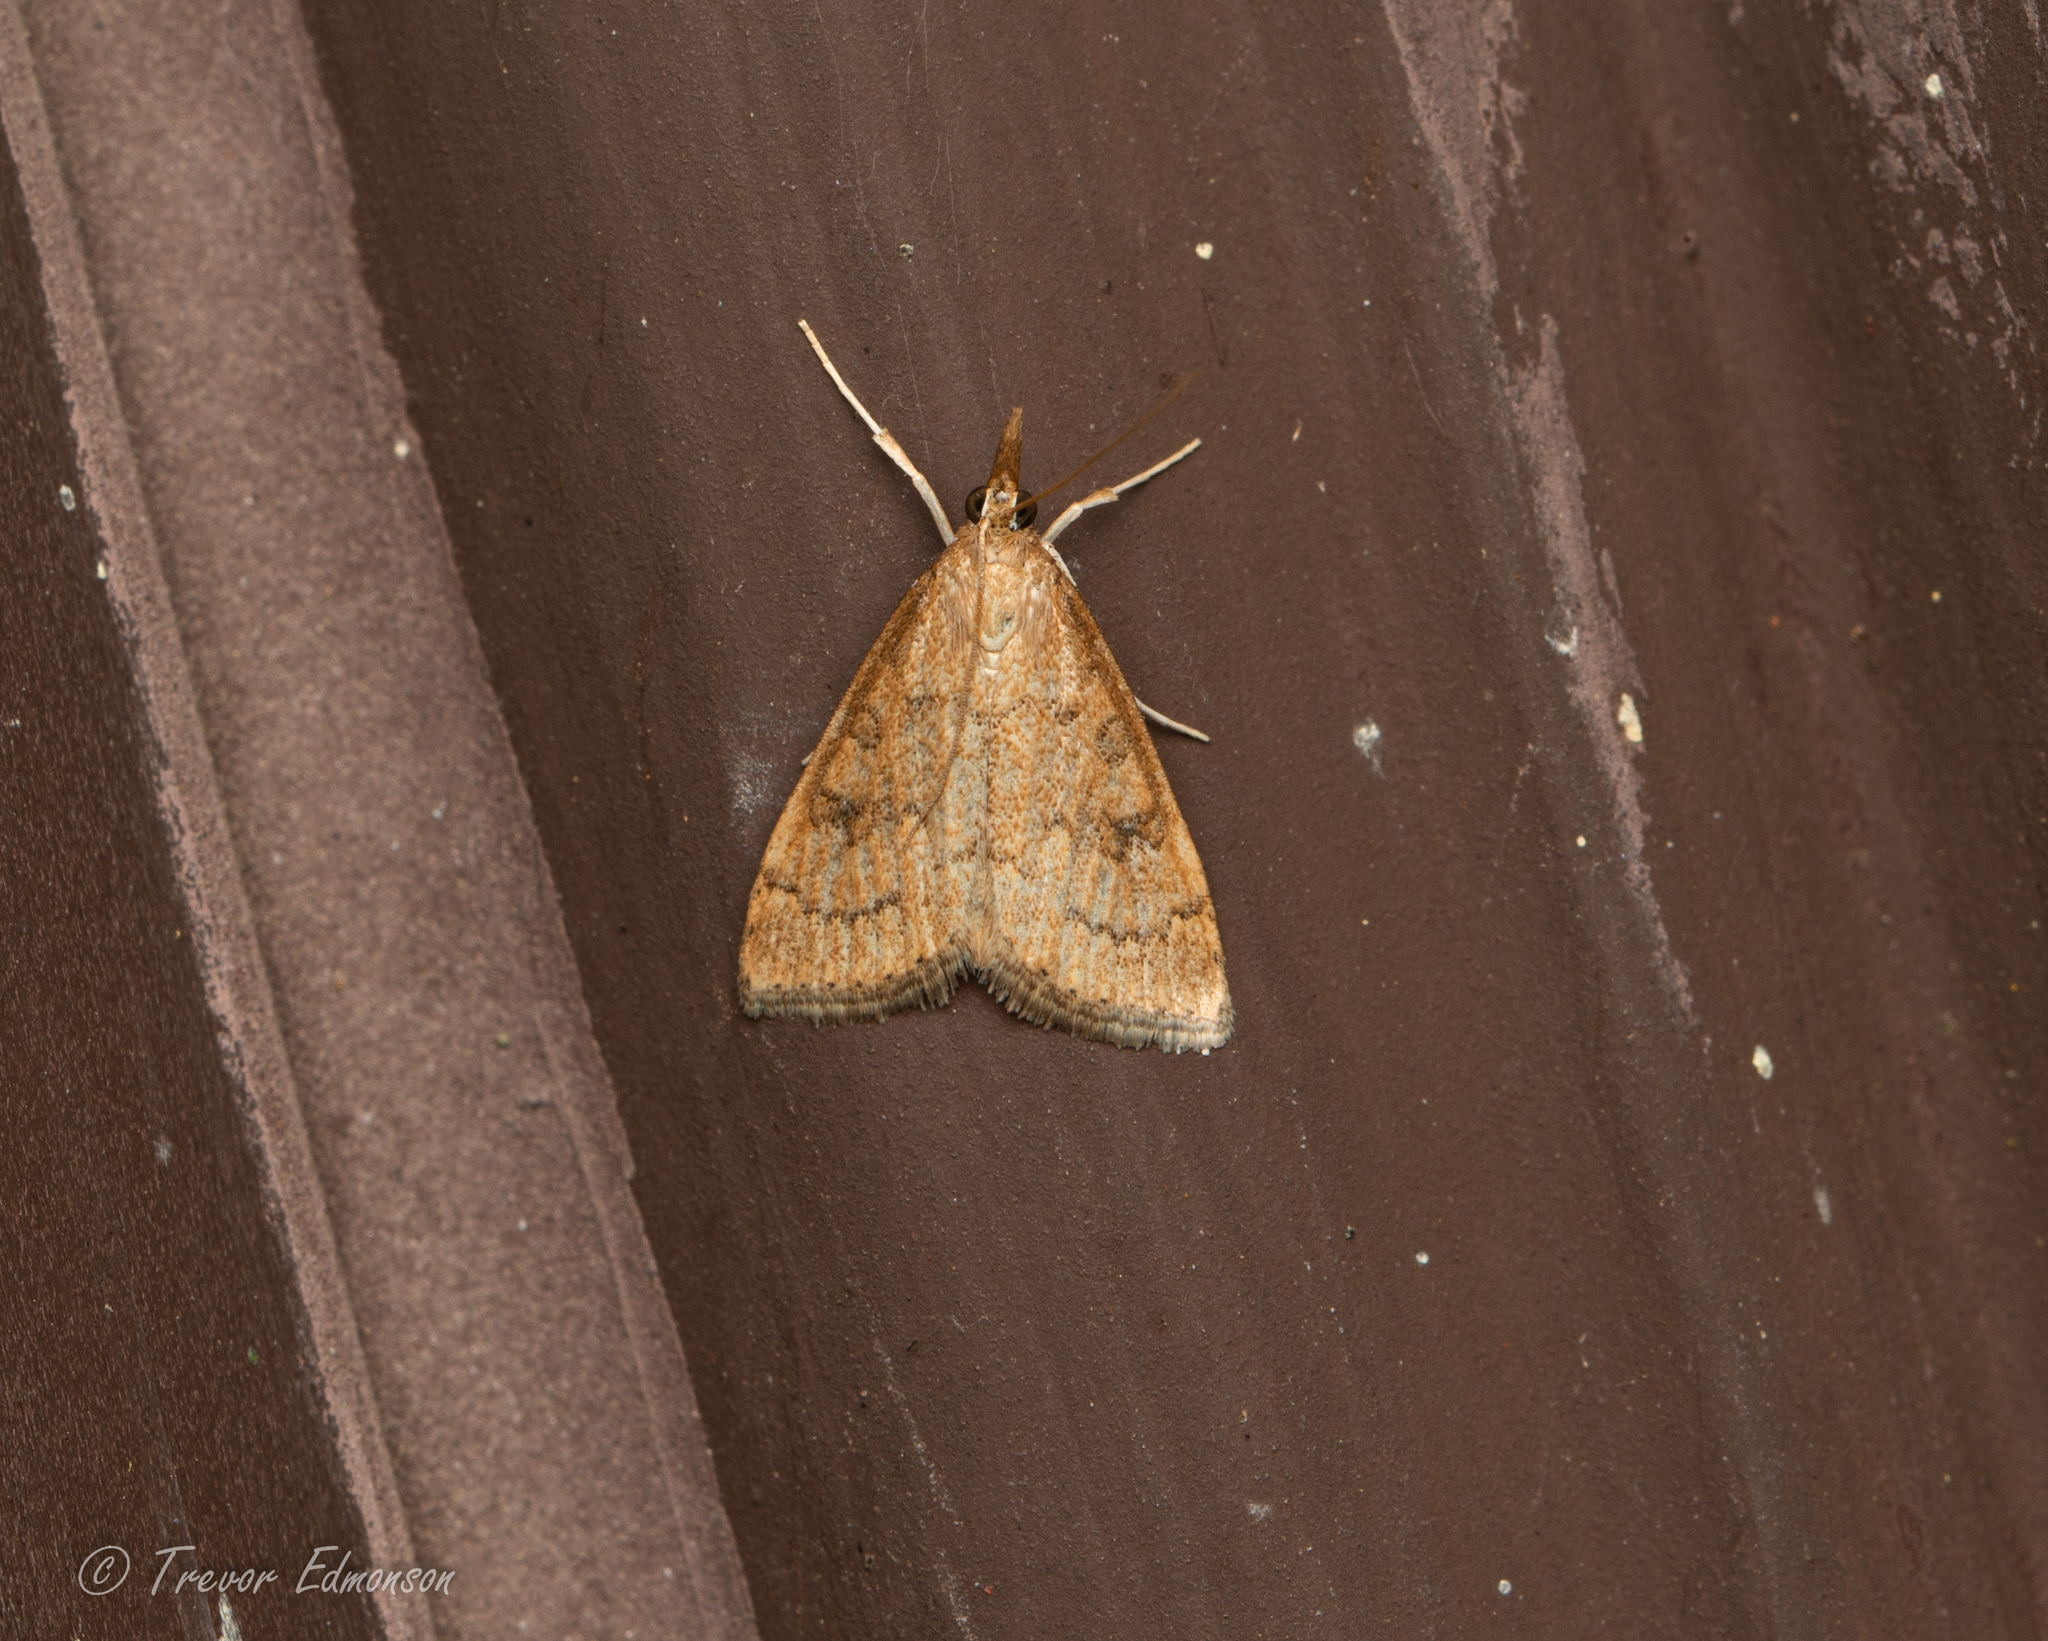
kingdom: Animalia
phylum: Arthropoda
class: Insecta
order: Lepidoptera
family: Crambidae
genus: Udea
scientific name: Udea rubigalis
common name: Celery leaftier moth
